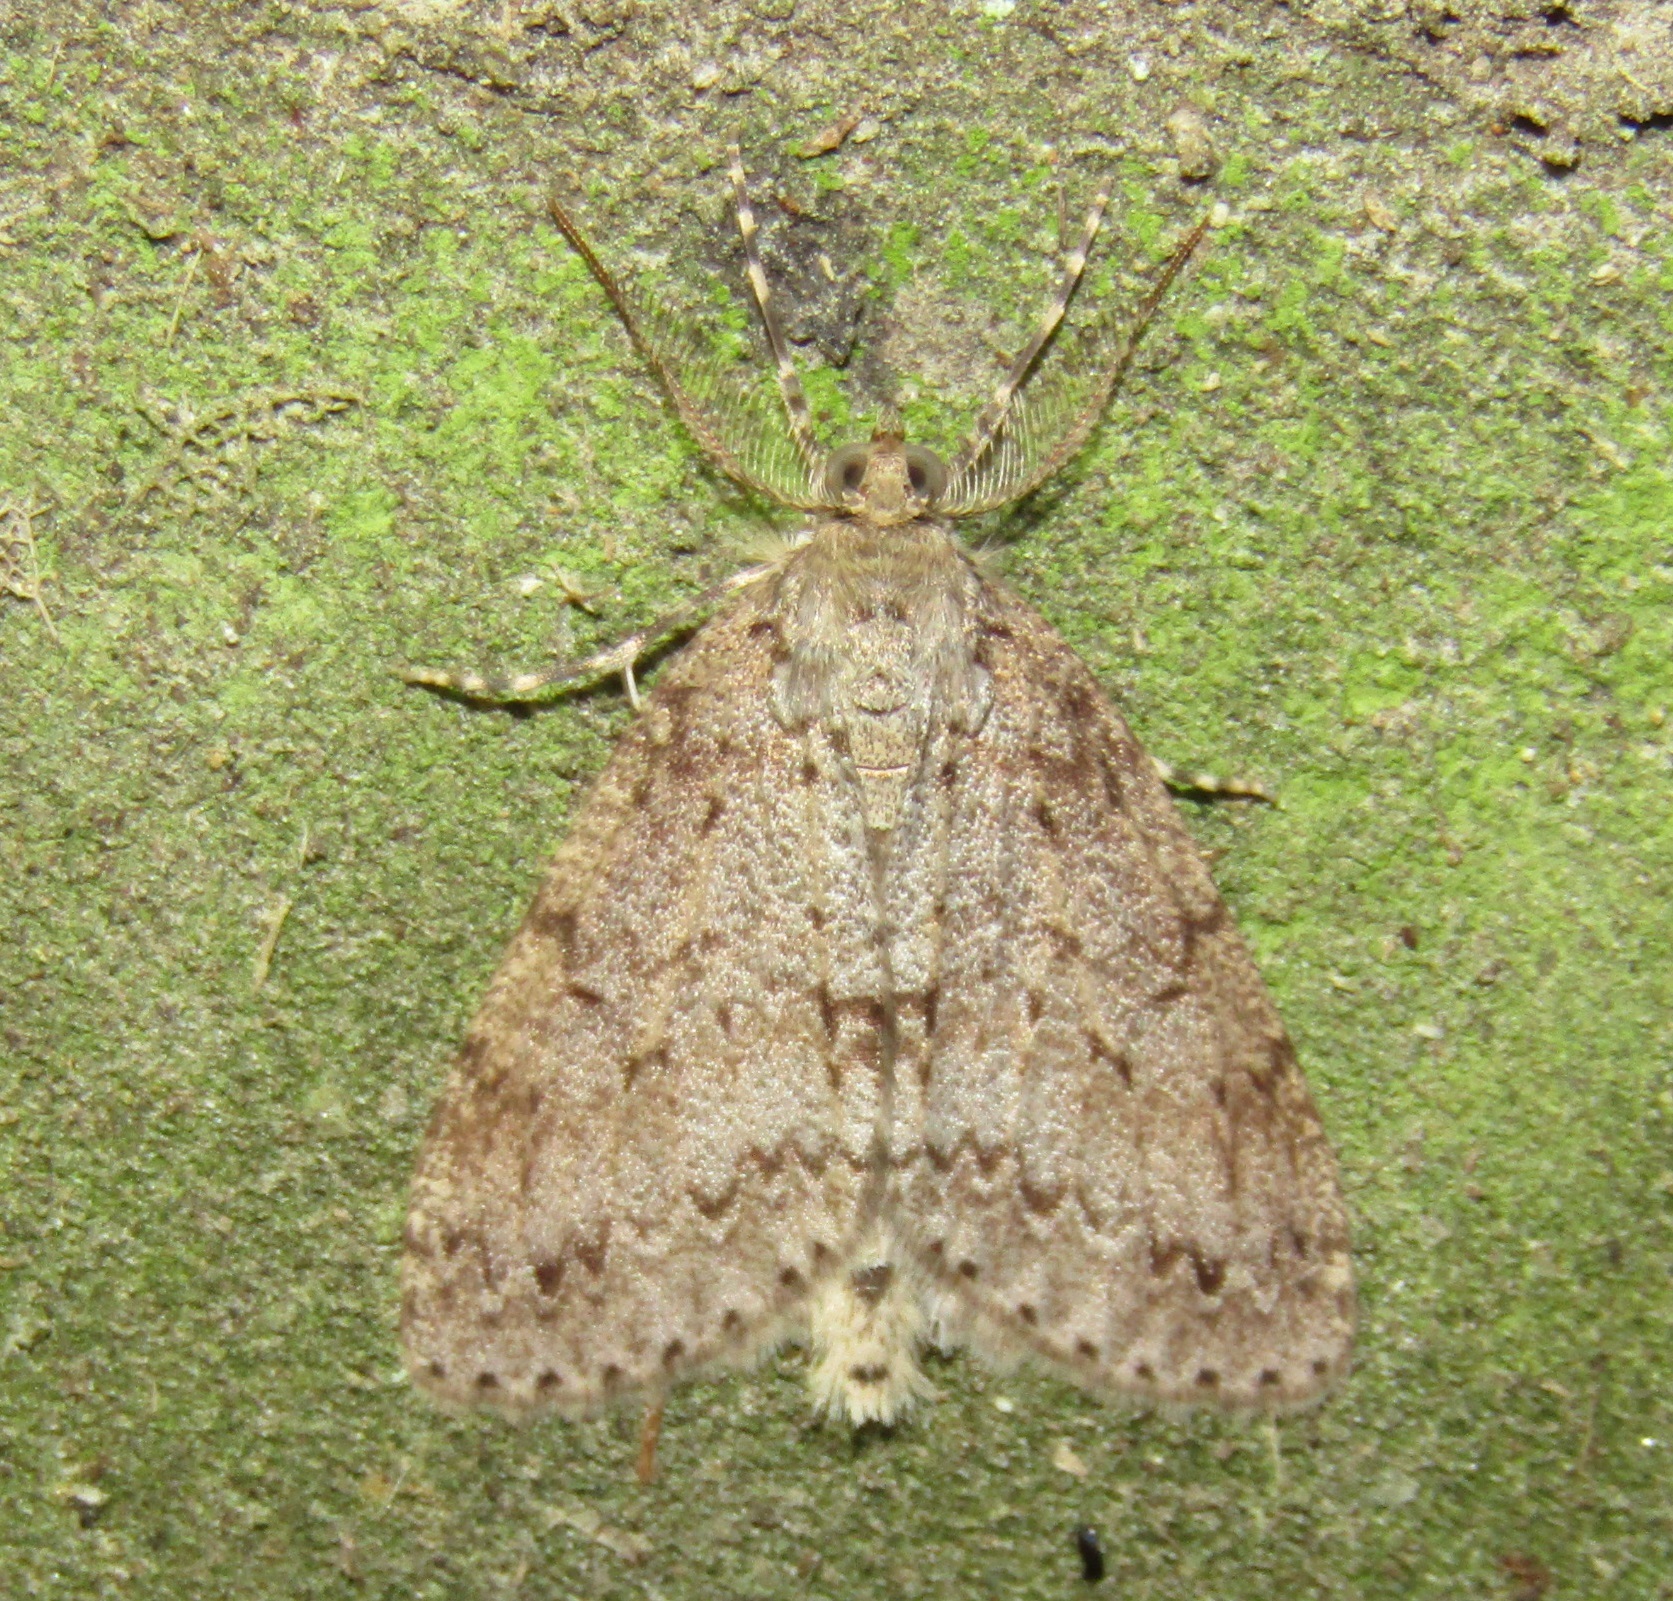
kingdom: Animalia
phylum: Arthropoda
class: Insecta
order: Lepidoptera
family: Geometridae
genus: Pseudocoremia
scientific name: Pseudocoremia fenerata
